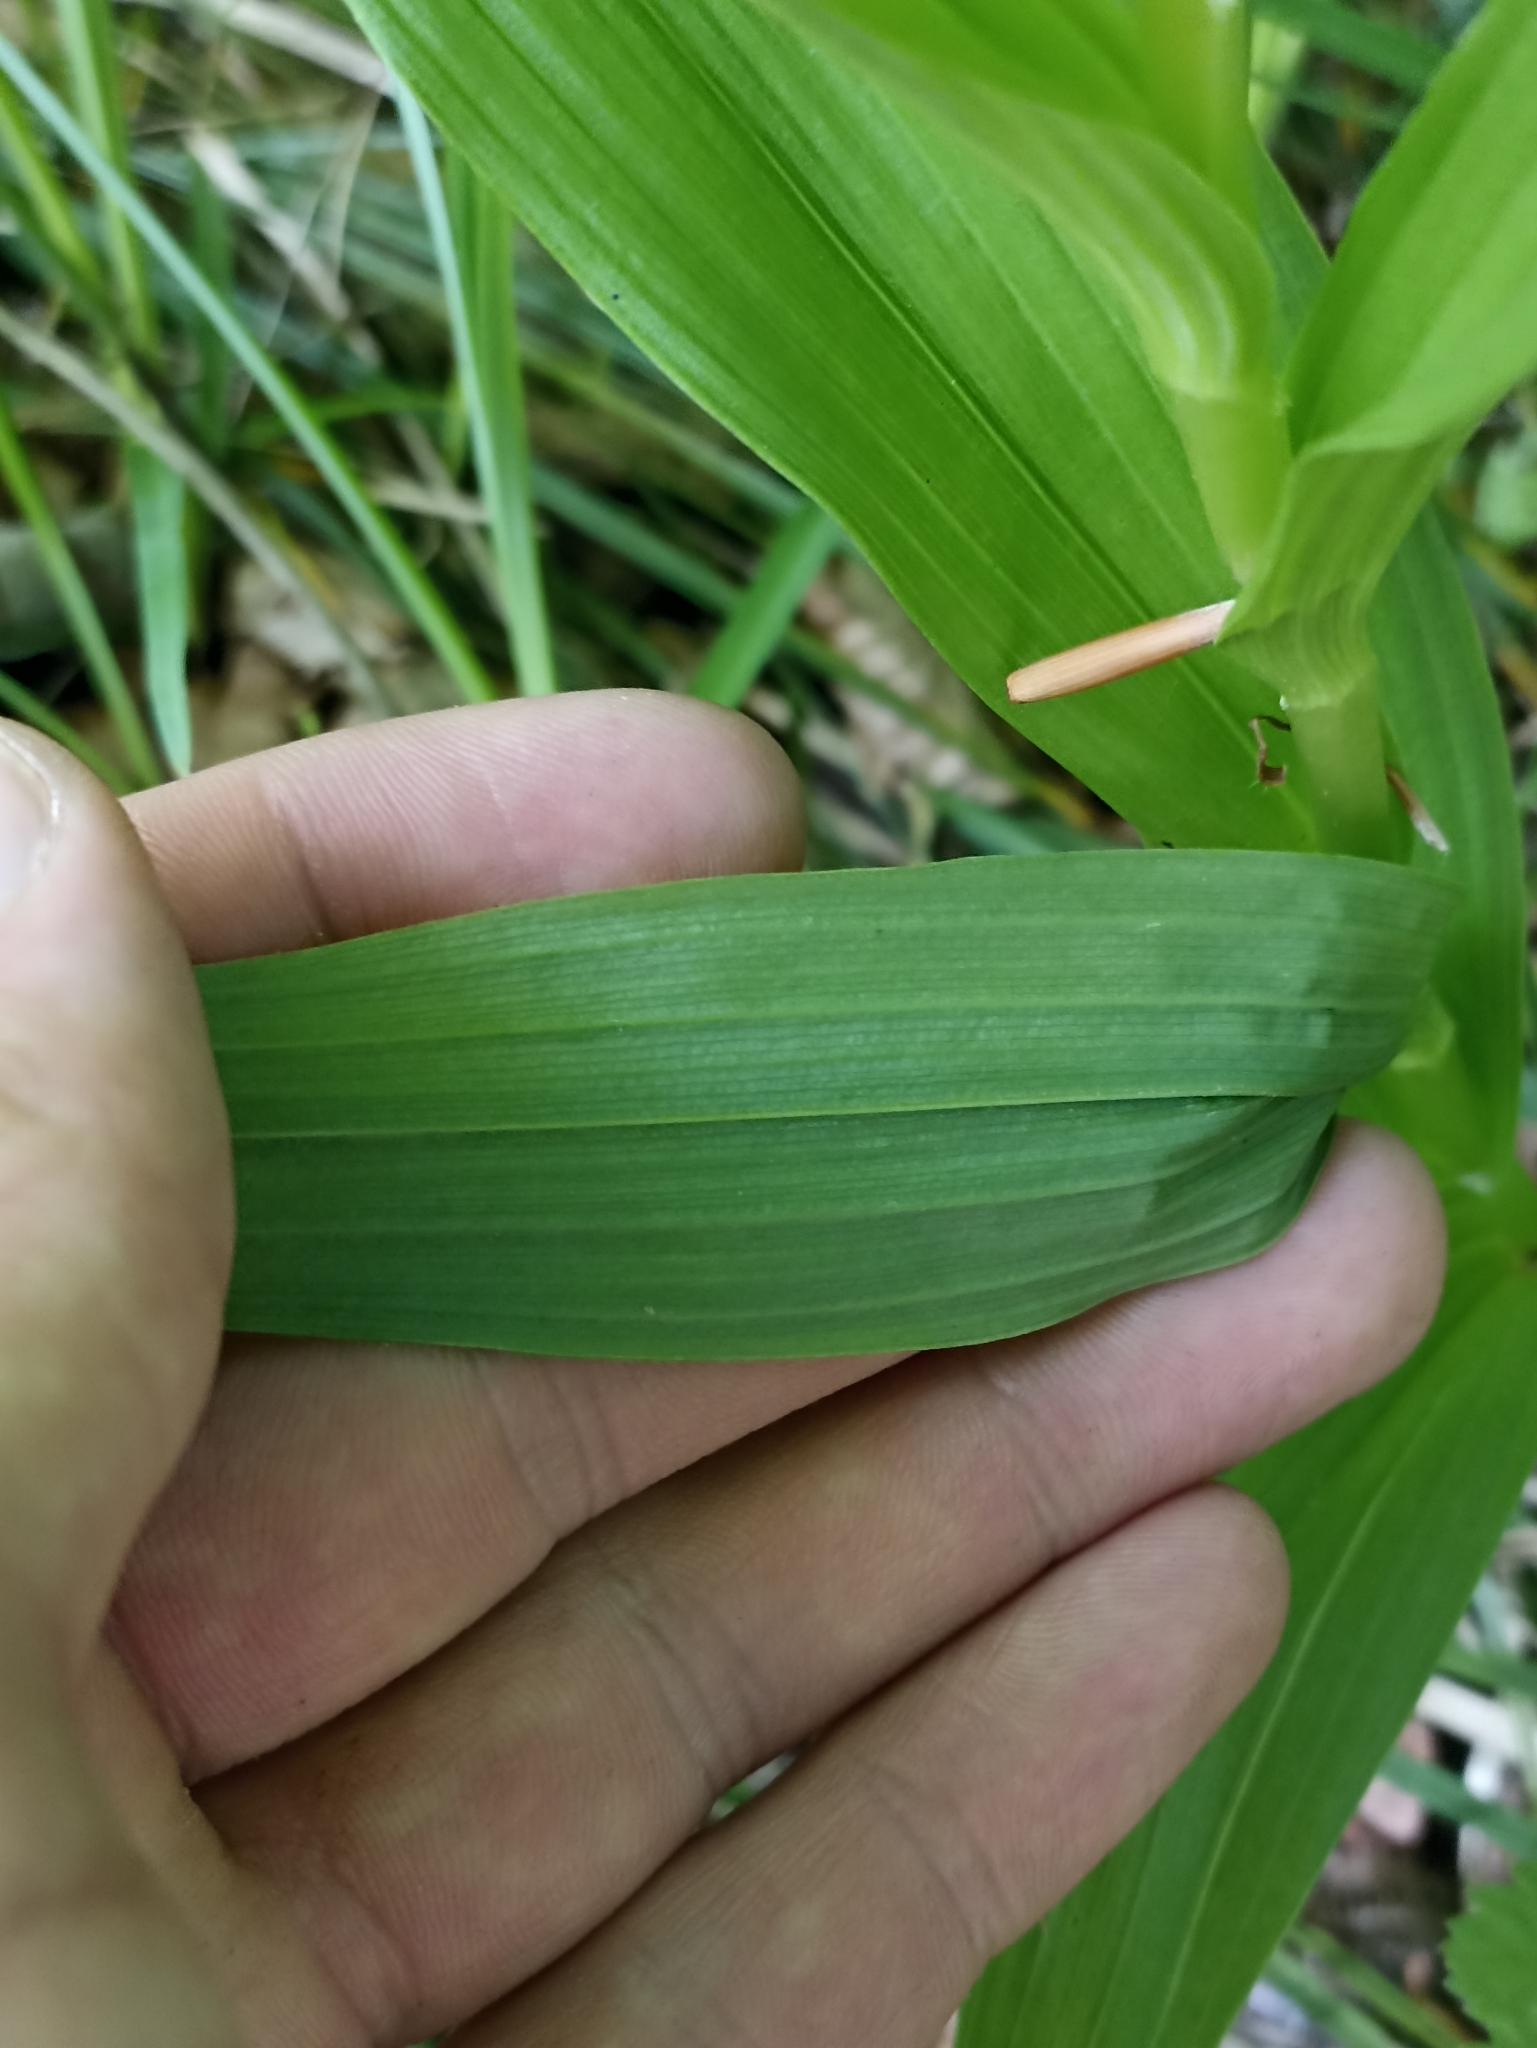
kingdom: Plantae
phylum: Tracheophyta
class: Liliopsida
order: Asparagales
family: Orchidaceae
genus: Cephalanthera
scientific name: Cephalanthera longifolia
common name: Narrow-leaved helleborine
